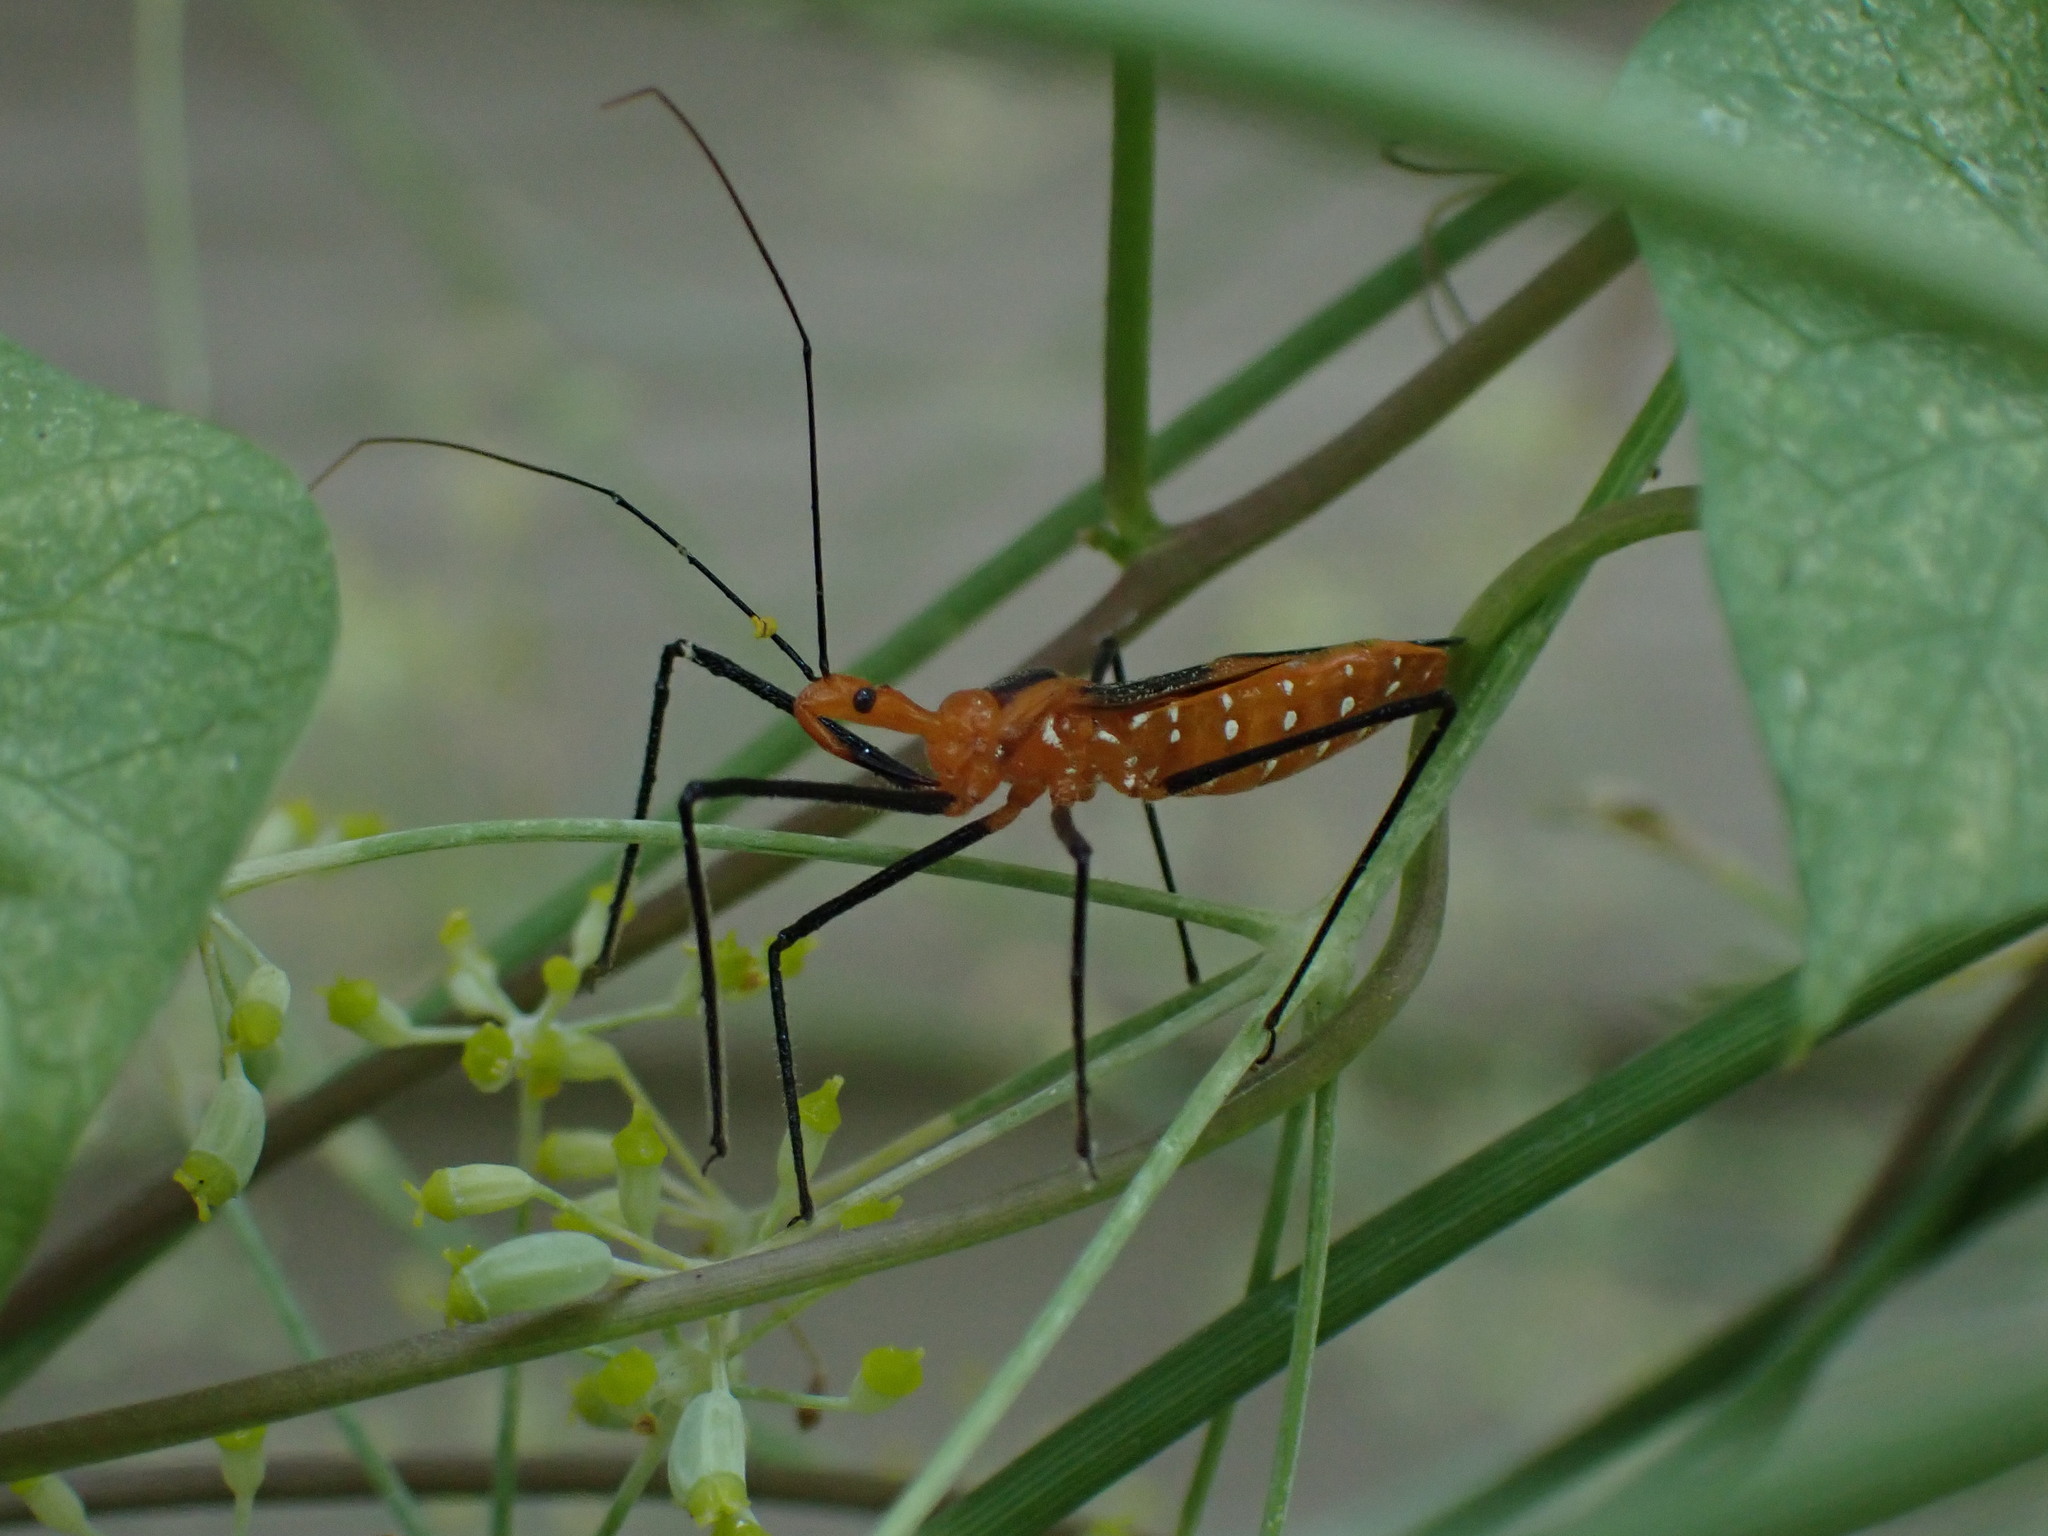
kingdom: Animalia
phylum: Arthropoda
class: Insecta
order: Hemiptera
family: Reduviidae
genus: Zelus
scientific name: Zelus longipes
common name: Milkweed assassin bug
